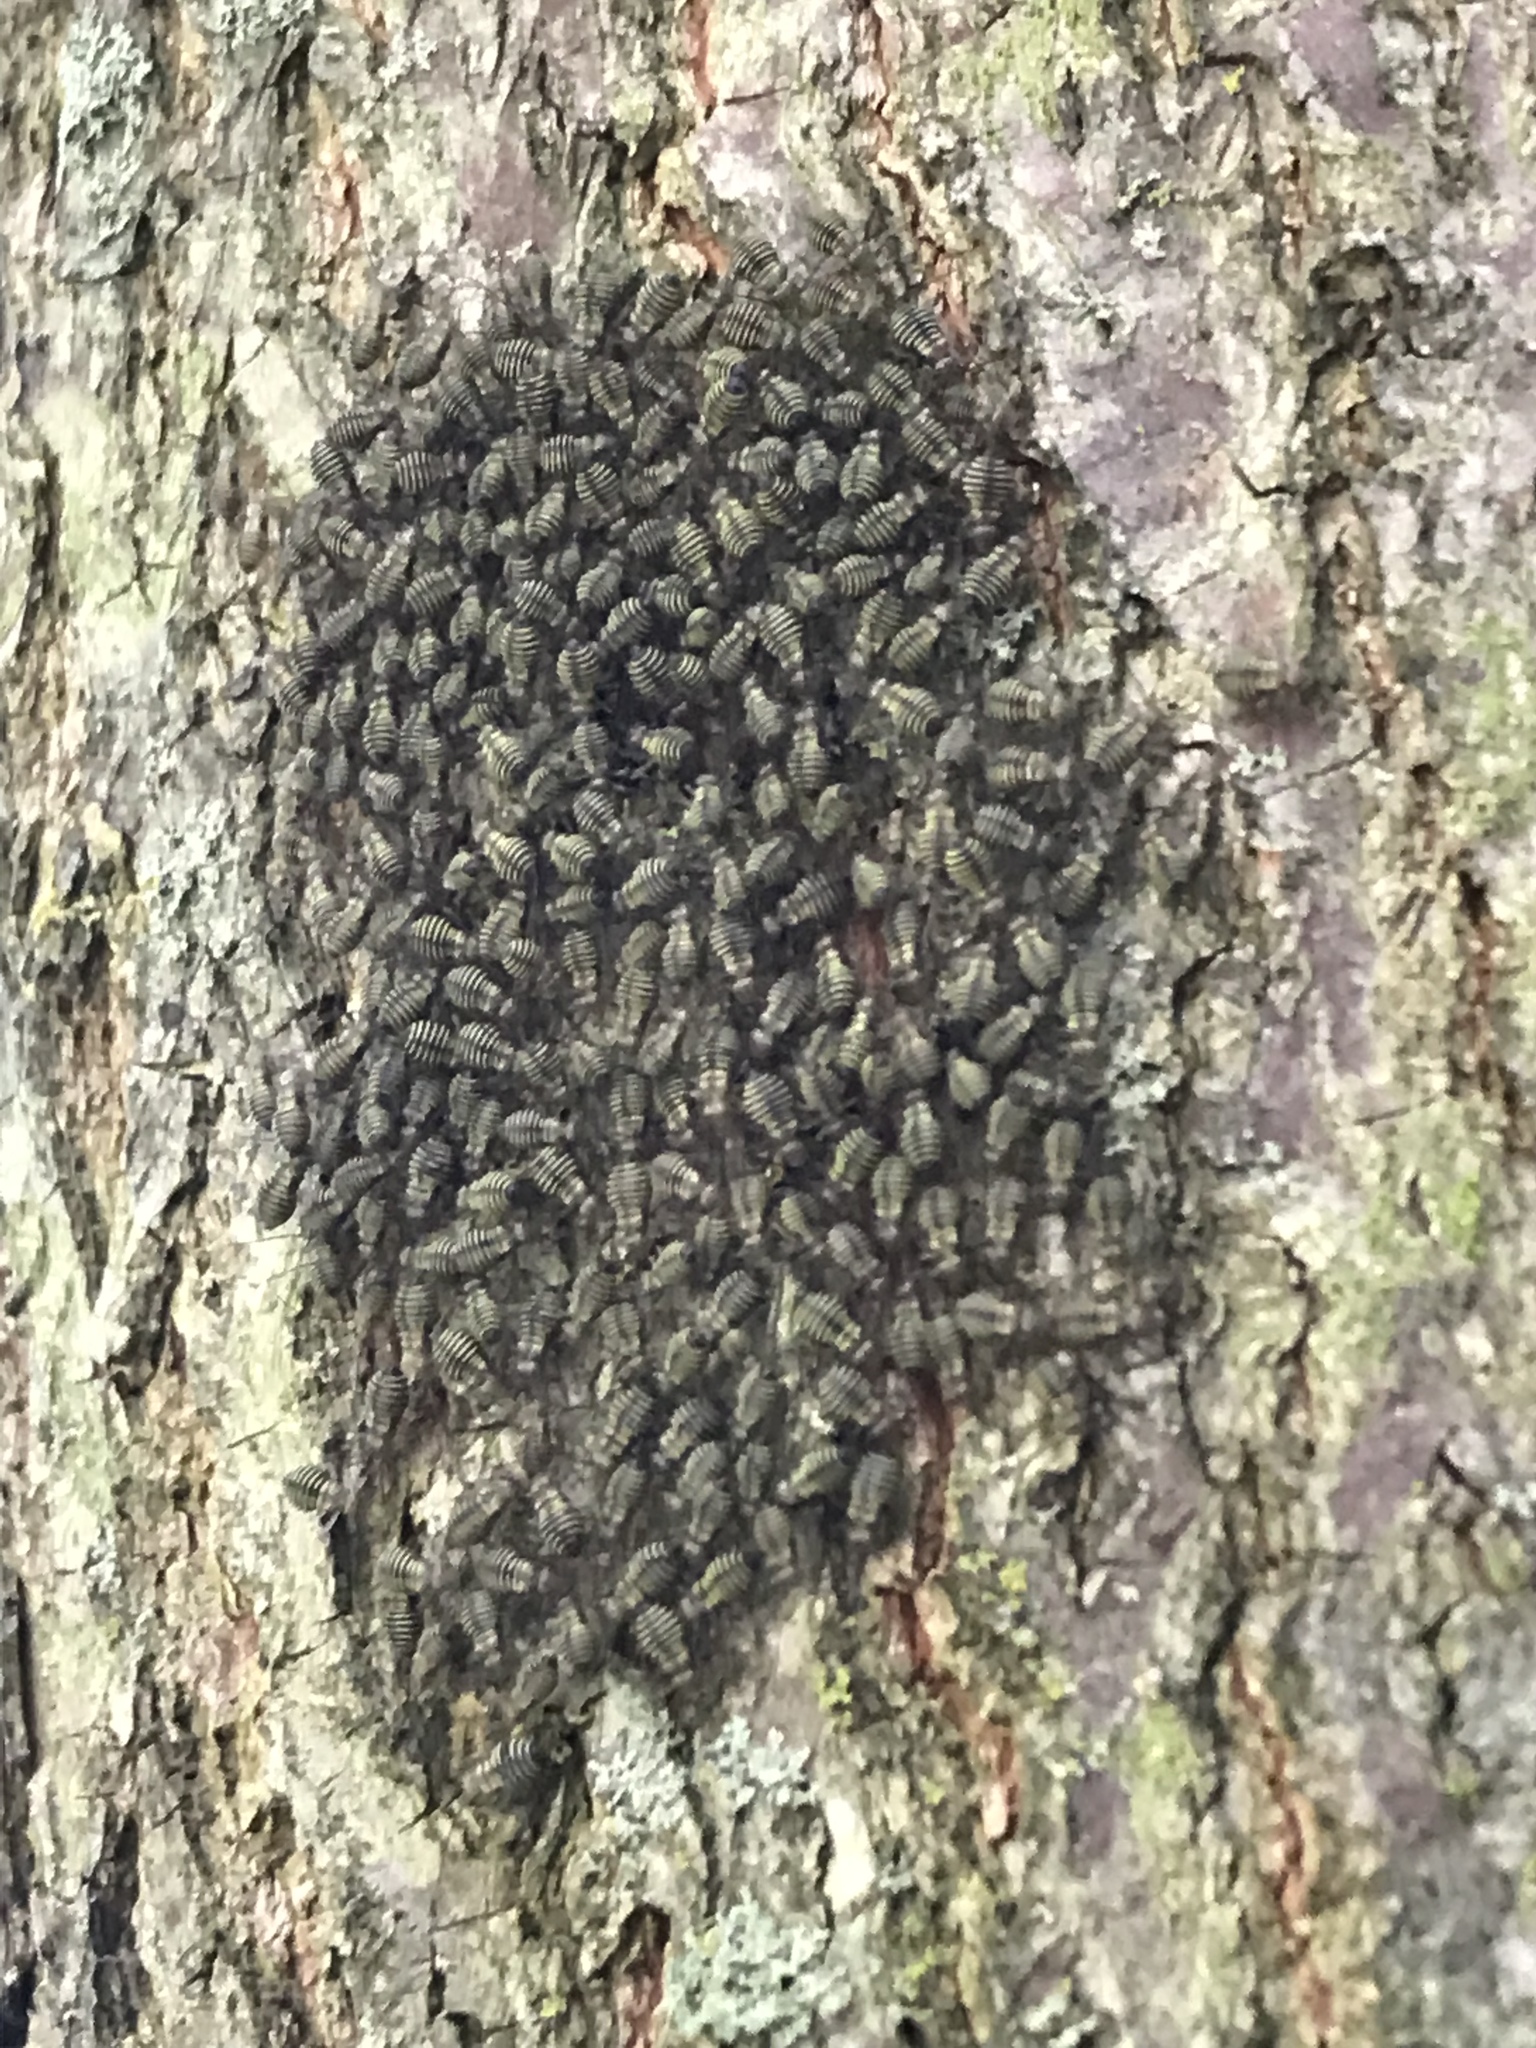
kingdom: Animalia
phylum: Arthropoda
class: Insecta
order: Psocodea
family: Psocidae
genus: Cerastipsocus
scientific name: Cerastipsocus venosus
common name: Tree cattle
